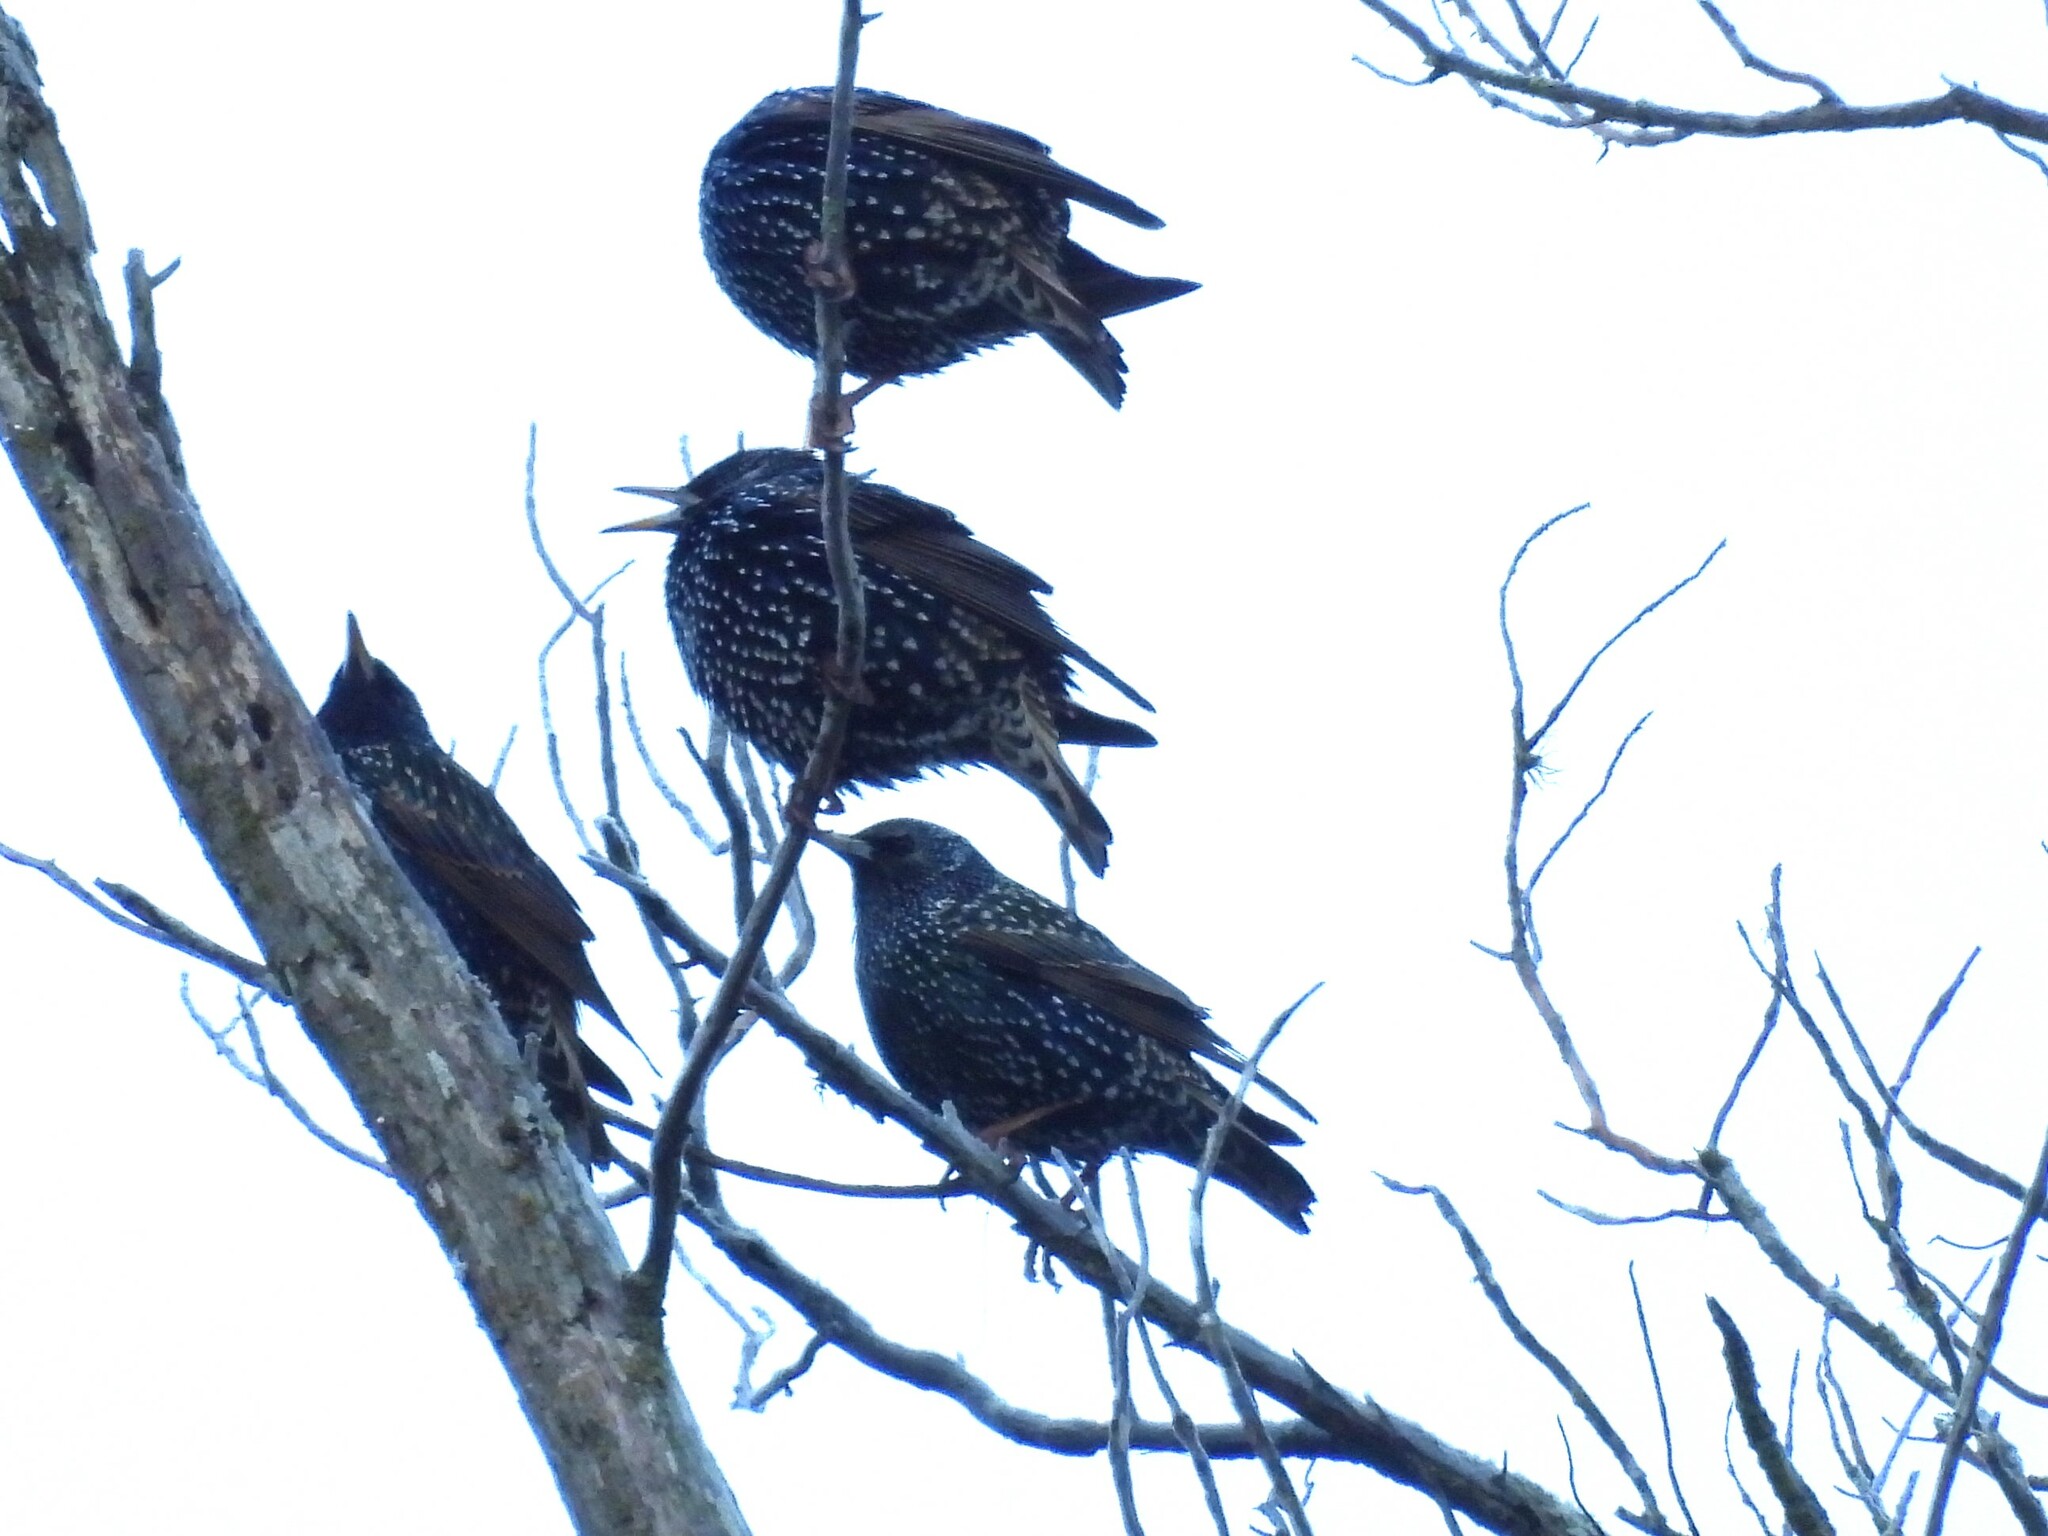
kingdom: Animalia
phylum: Chordata
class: Aves
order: Passeriformes
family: Sturnidae
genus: Sturnus
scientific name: Sturnus vulgaris
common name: Common starling
